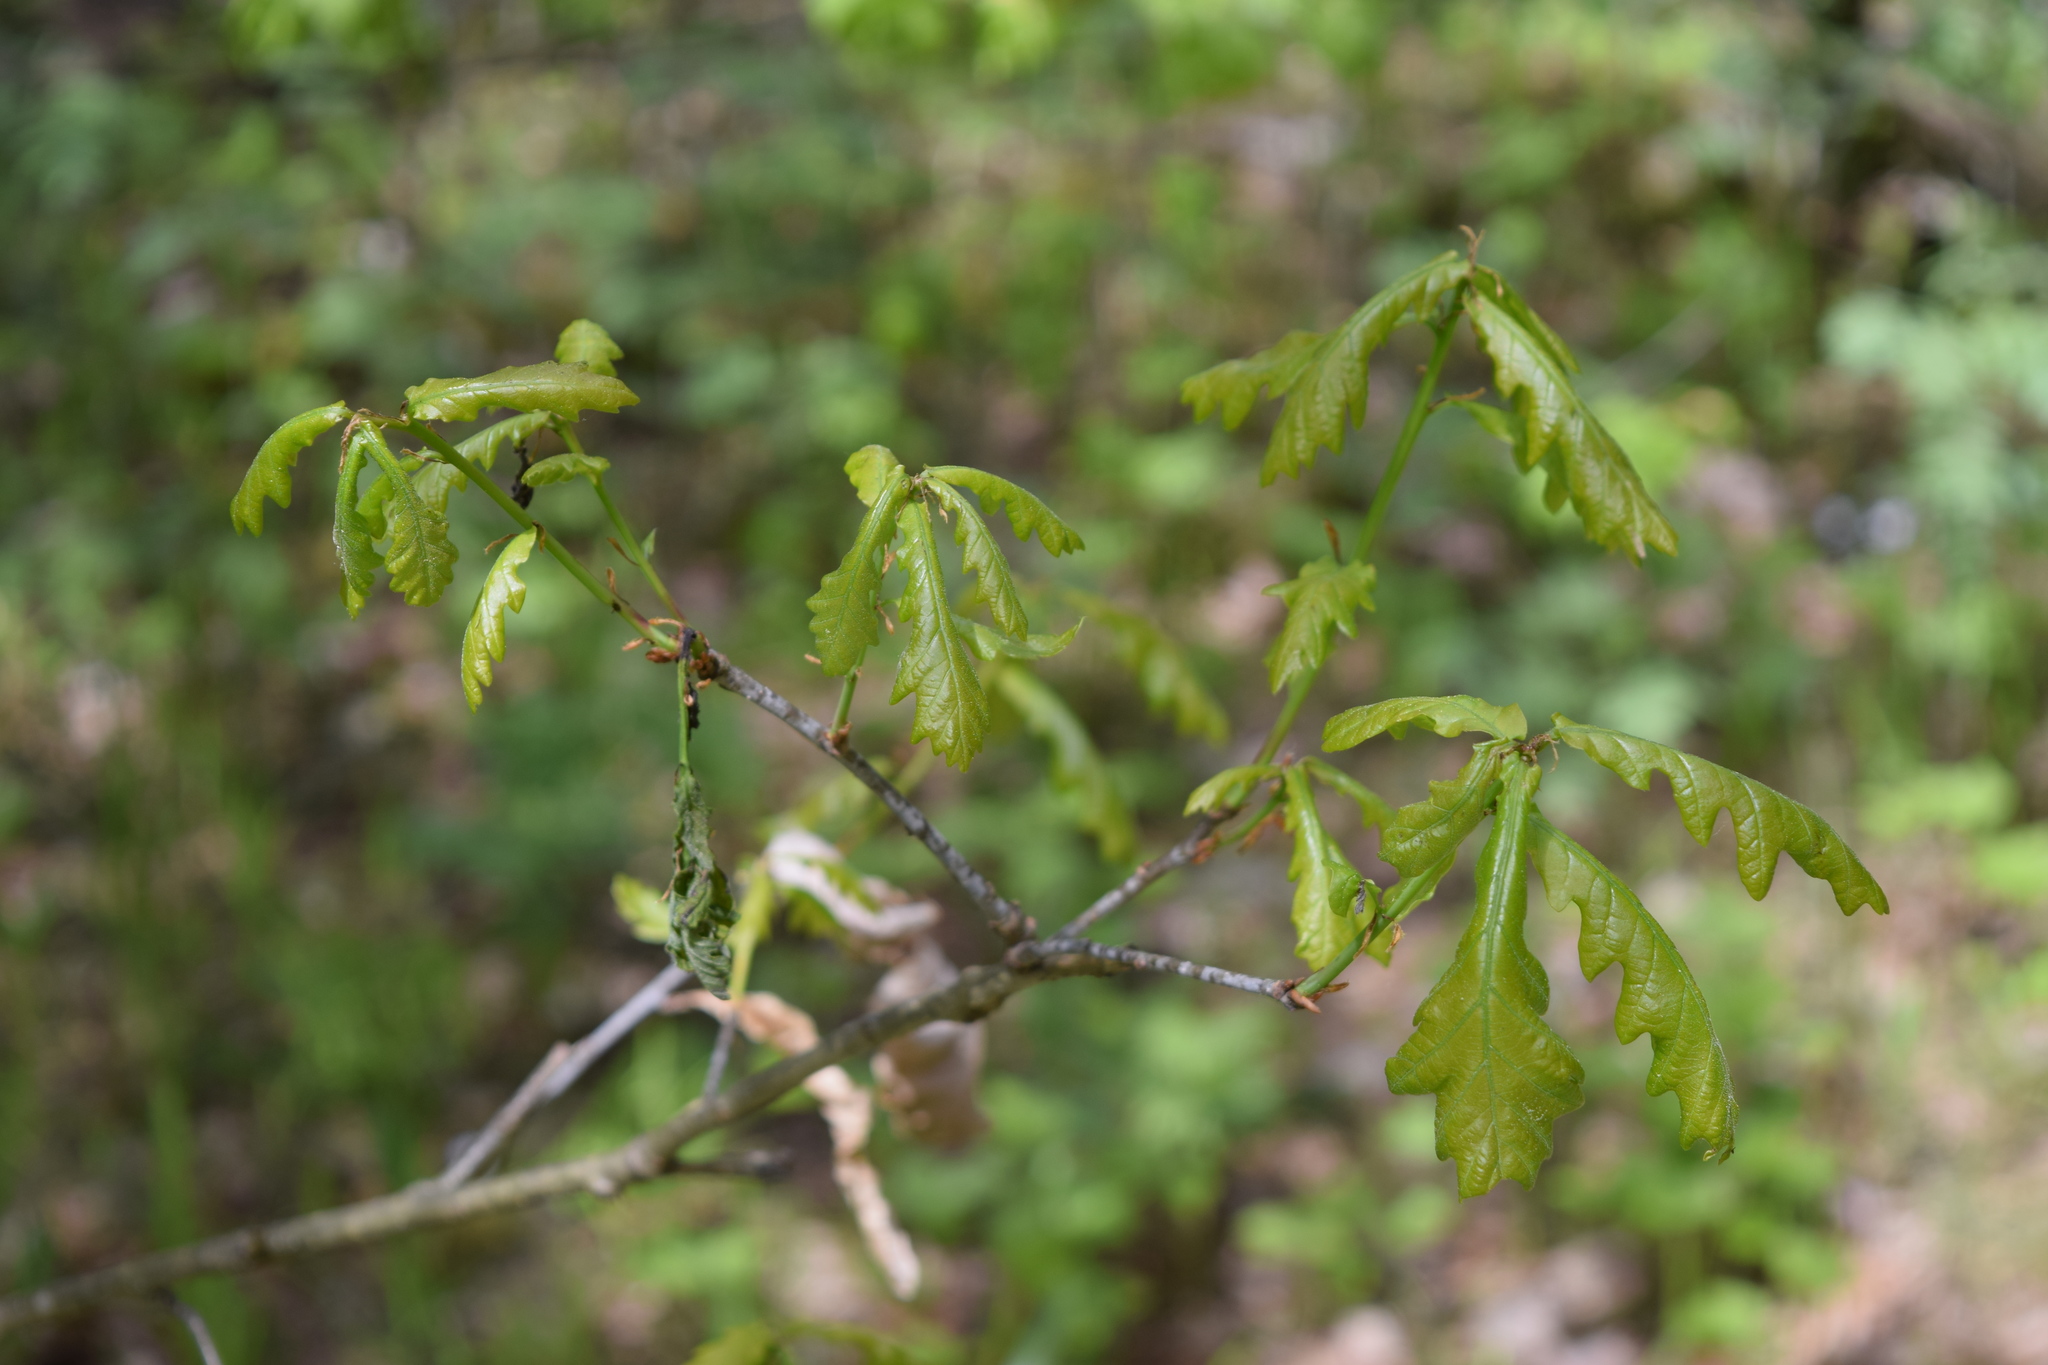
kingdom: Plantae
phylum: Tracheophyta
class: Magnoliopsida
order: Fagales
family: Fagaceae
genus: Quercus
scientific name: Quercus robur
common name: Pedunculate oak
